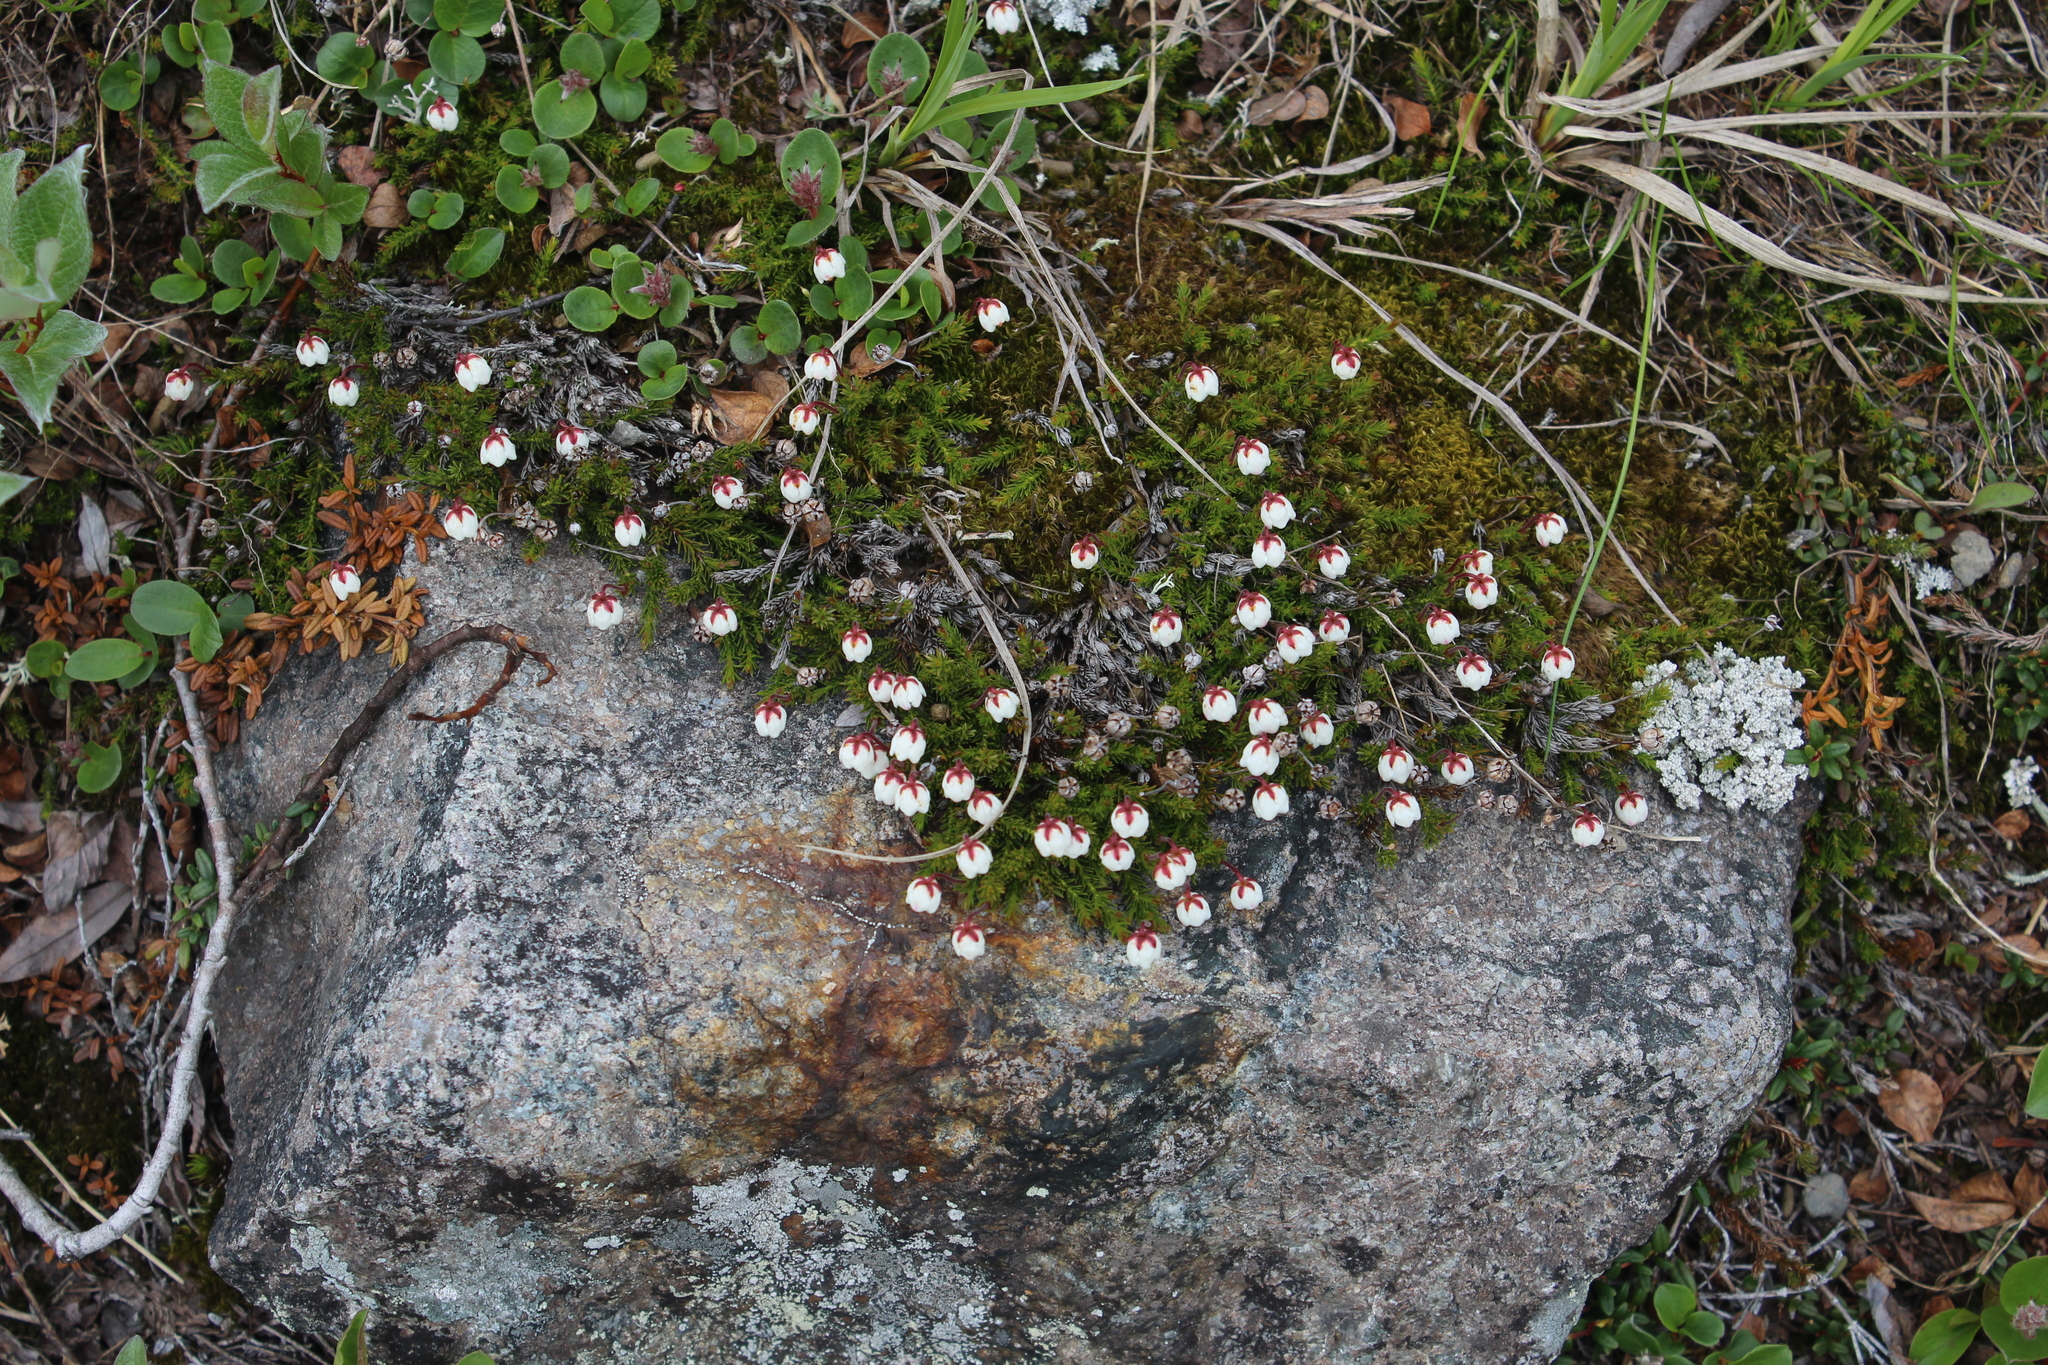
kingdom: Plantae
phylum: Tracheophyta
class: Magnoliopsida
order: Ericales
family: Ericaceae
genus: Harrimanella
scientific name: Harrimanella hypnoides
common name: Moss bell heather
